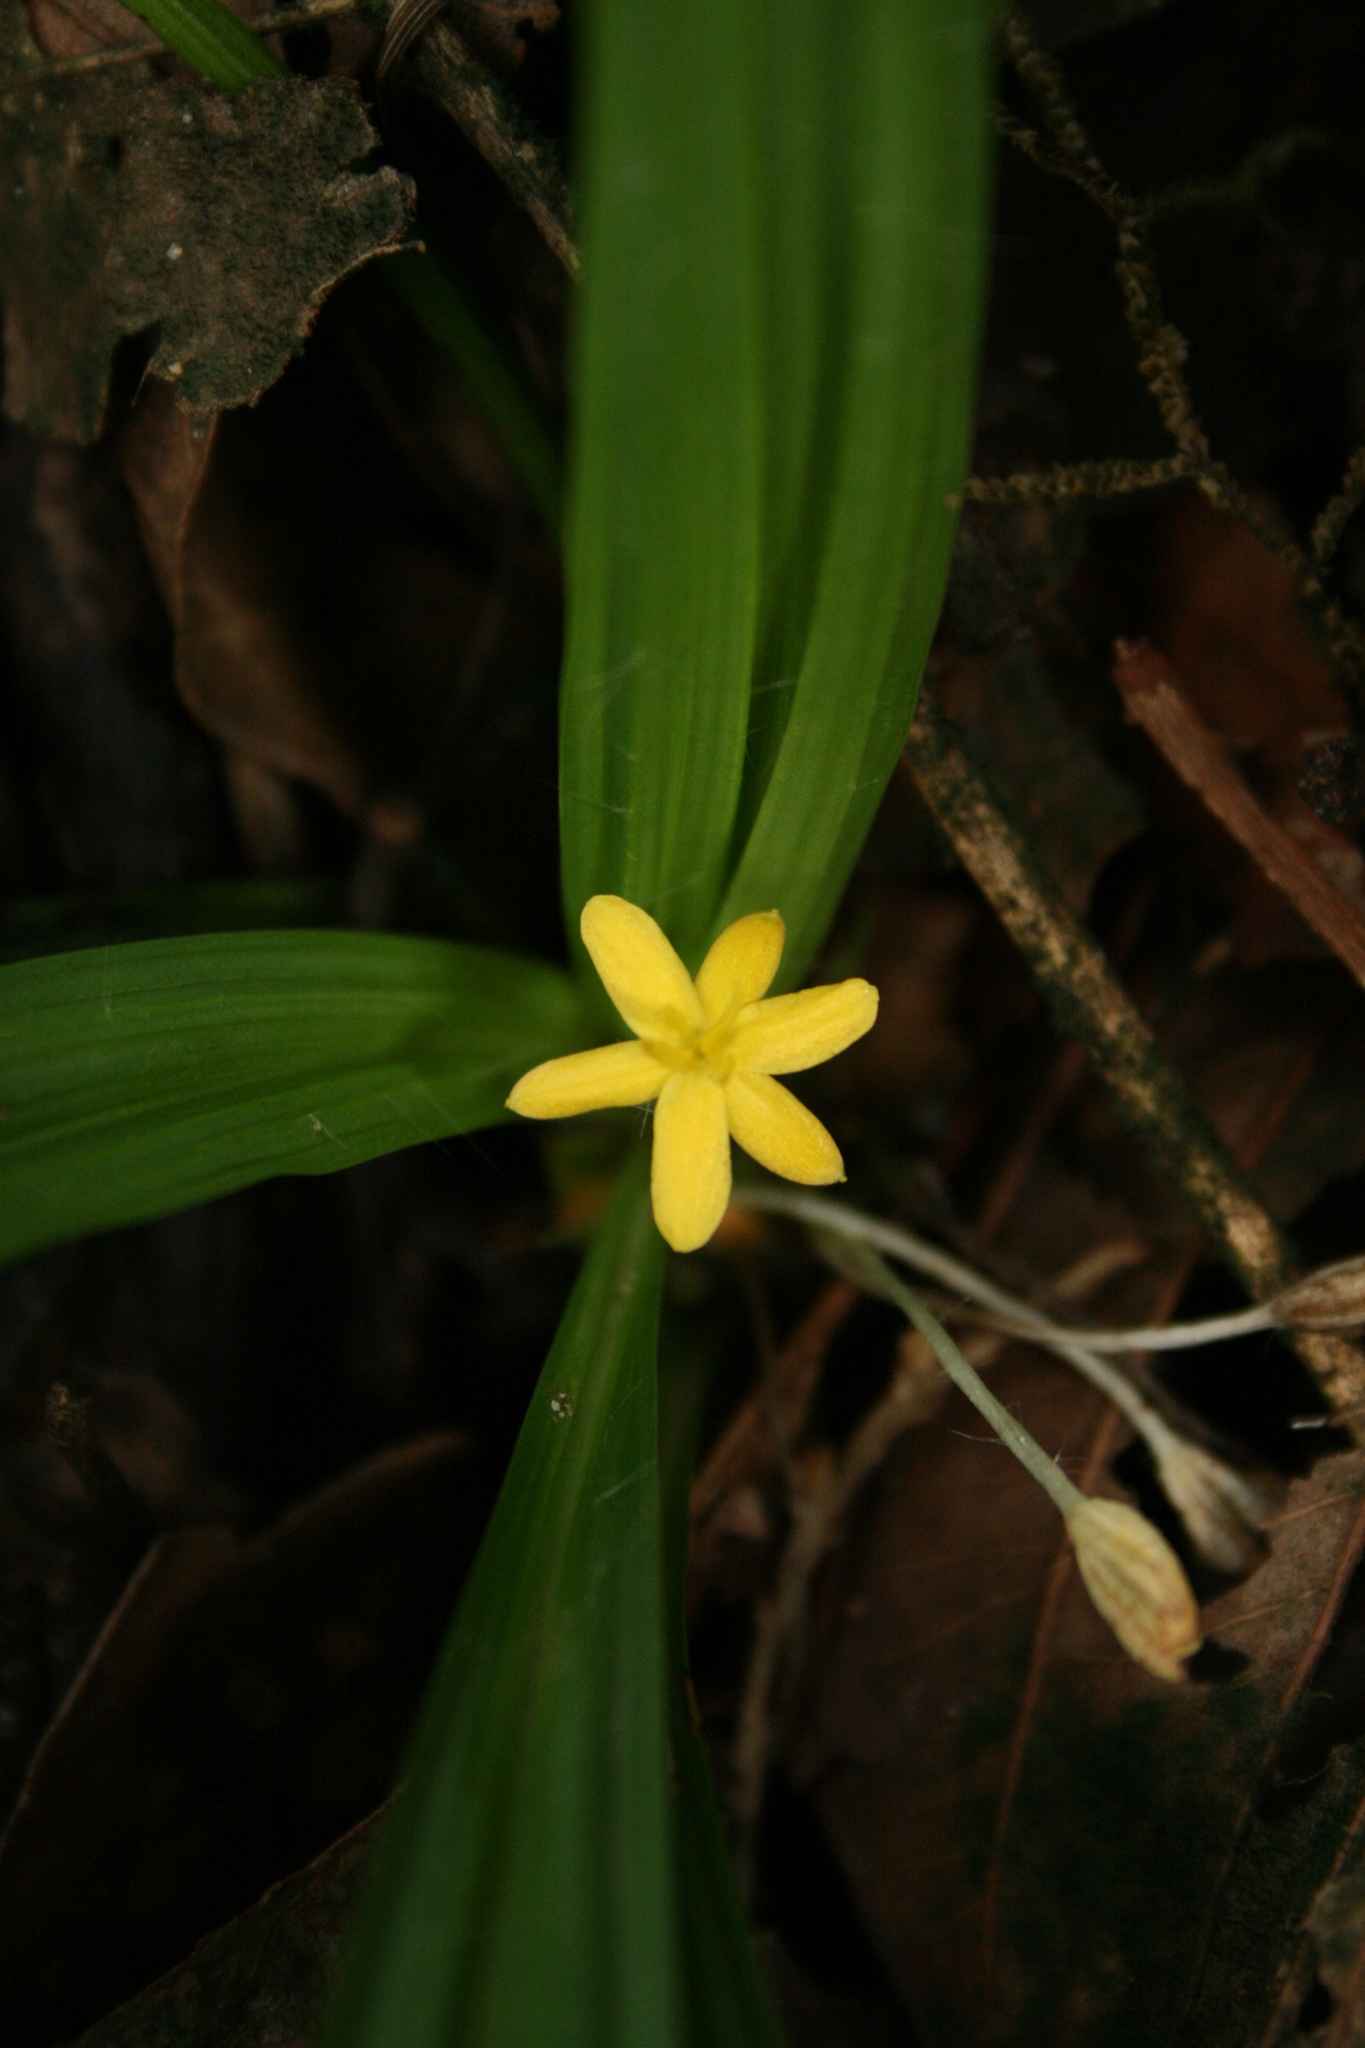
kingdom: Plantae
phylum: Tracheophyta
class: Liliopsida
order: Asparagales
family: Hypoxidaceae
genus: Curculigo
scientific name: Curculigo orchioides
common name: Golden eye-grass
